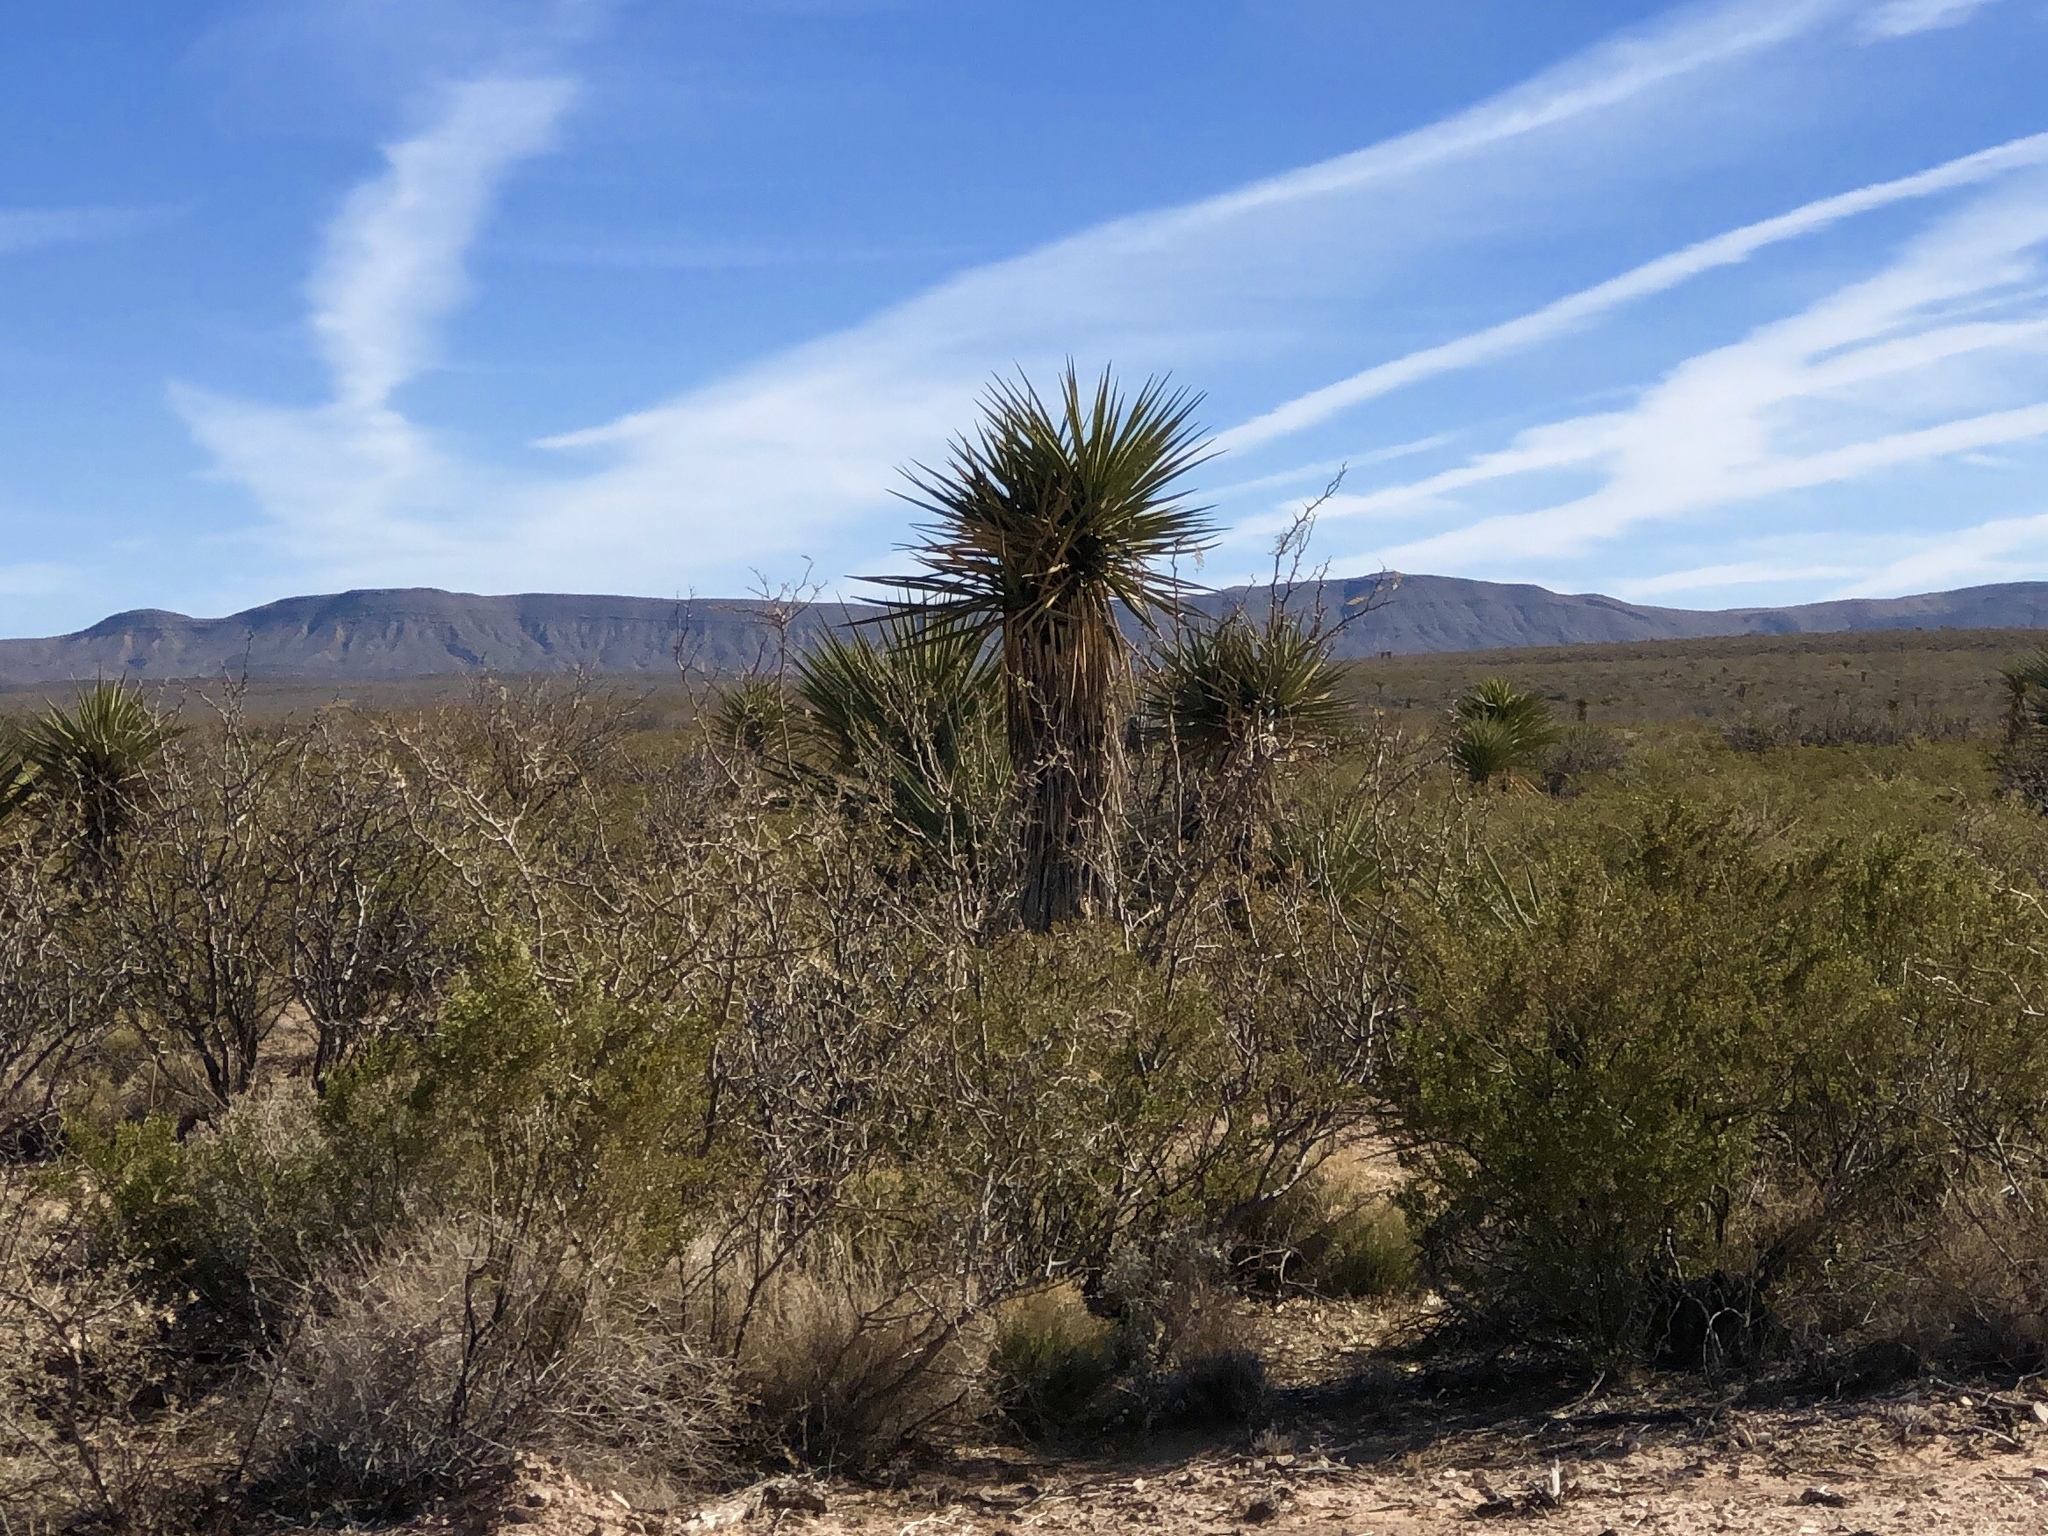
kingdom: Plantae
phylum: Tracheophyta
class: Liliopsida
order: Asparagales
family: Asparagaceae
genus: Yucca
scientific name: Yucca treculiana
